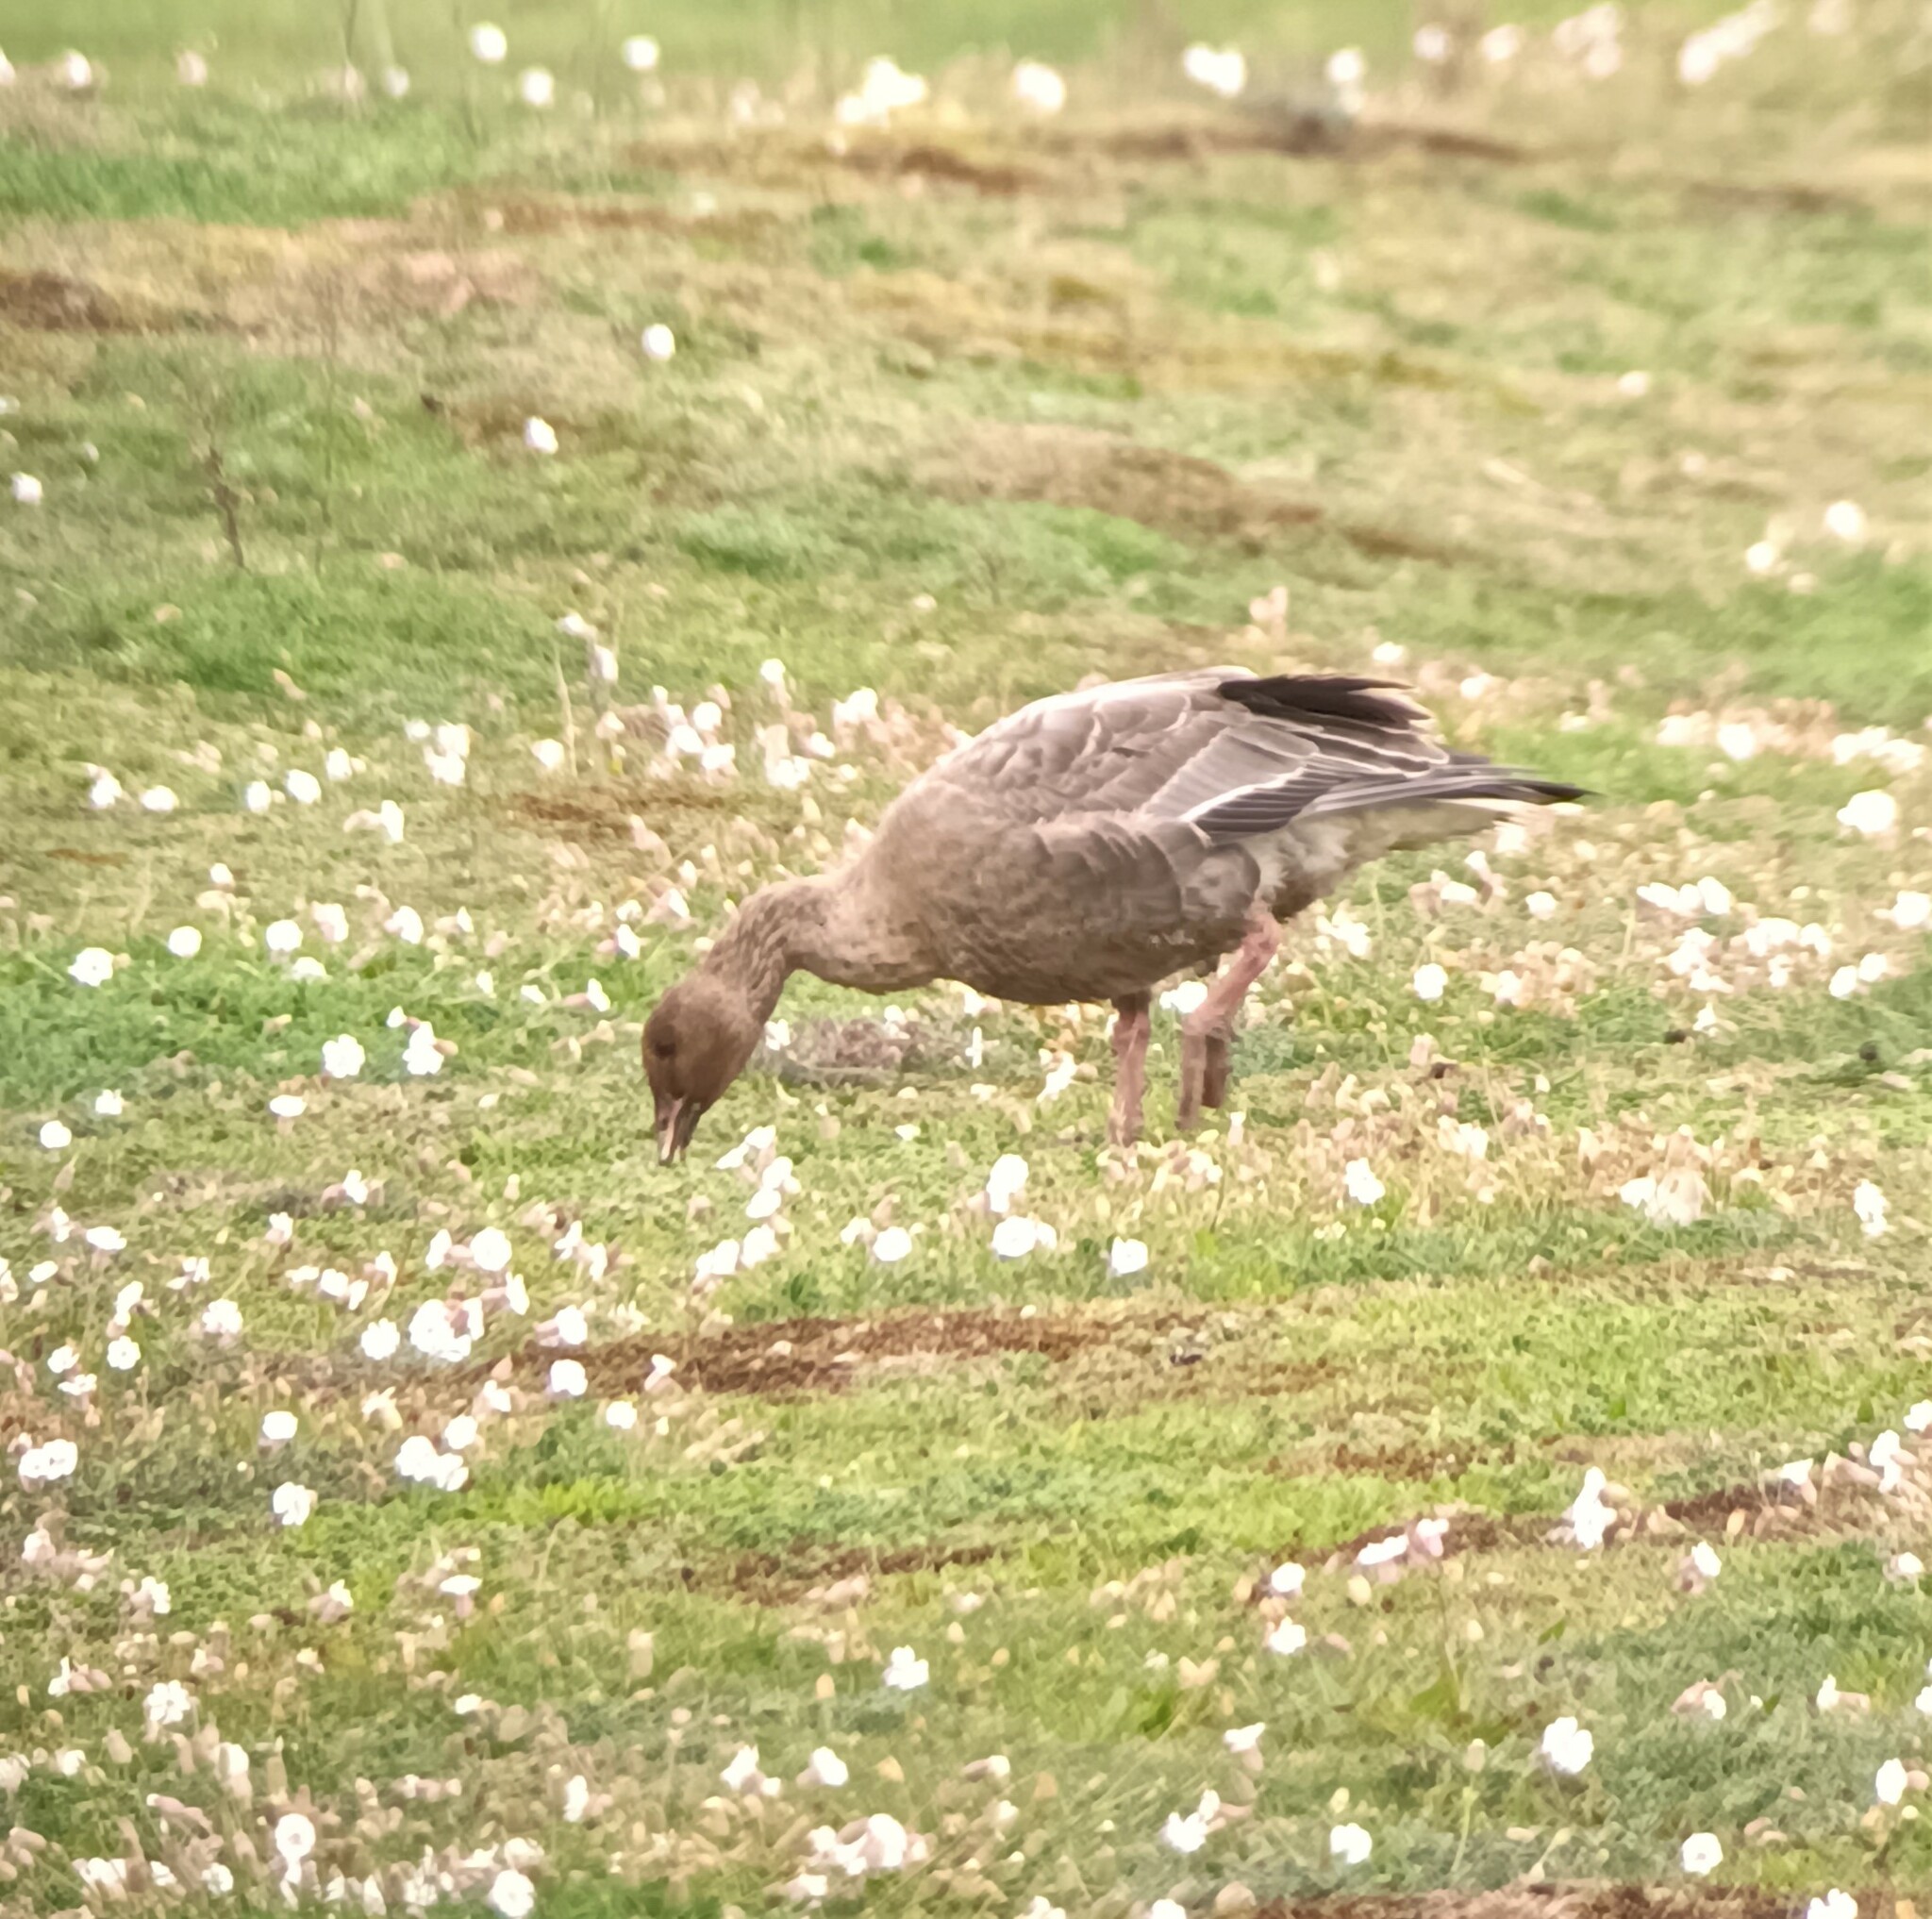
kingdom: Animalia
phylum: Chordata
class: Aves
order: Anseriformes
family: Anatidae
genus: Anser
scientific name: Anser brachyrhynchus
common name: Pink-footed goose
